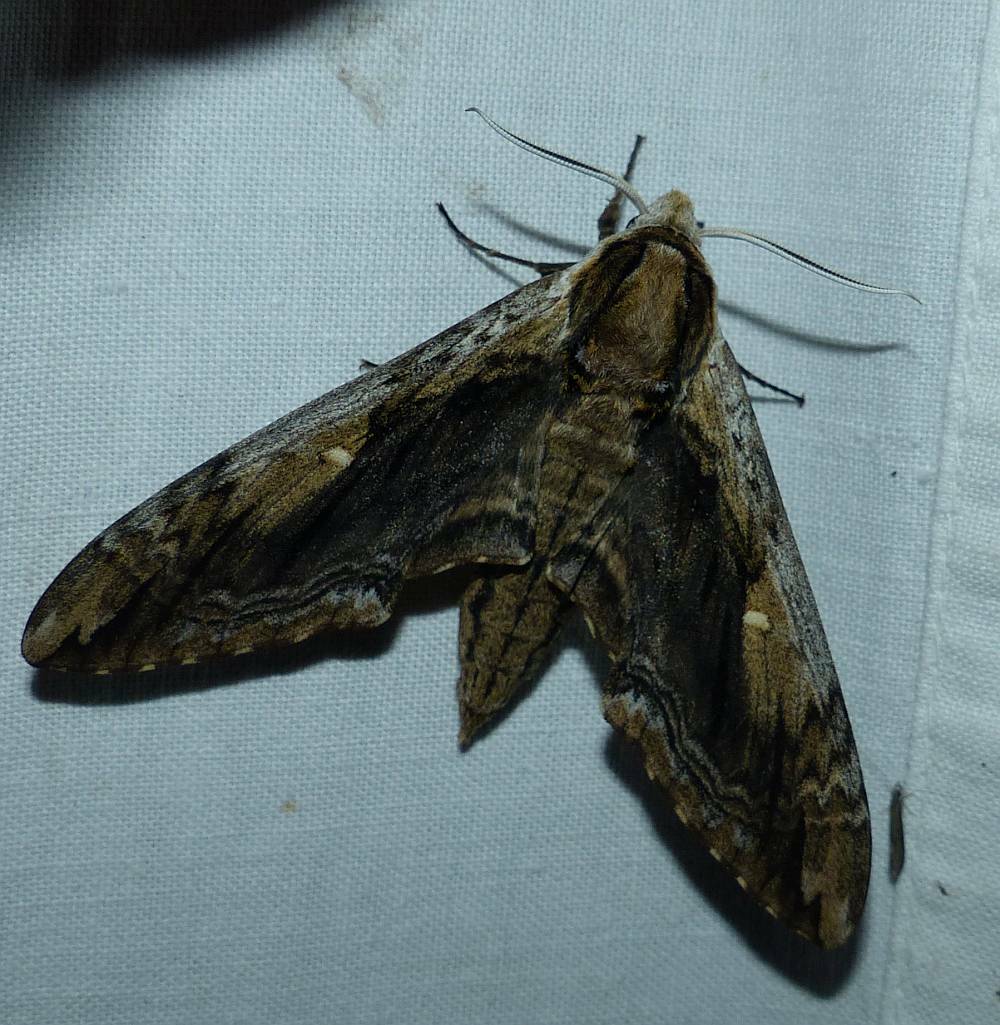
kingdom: Animalia
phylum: Arthropoda
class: Insecta
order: Lepidoptera
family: Sphingidae
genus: Ceratomia
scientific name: Ceratomia amyntor
